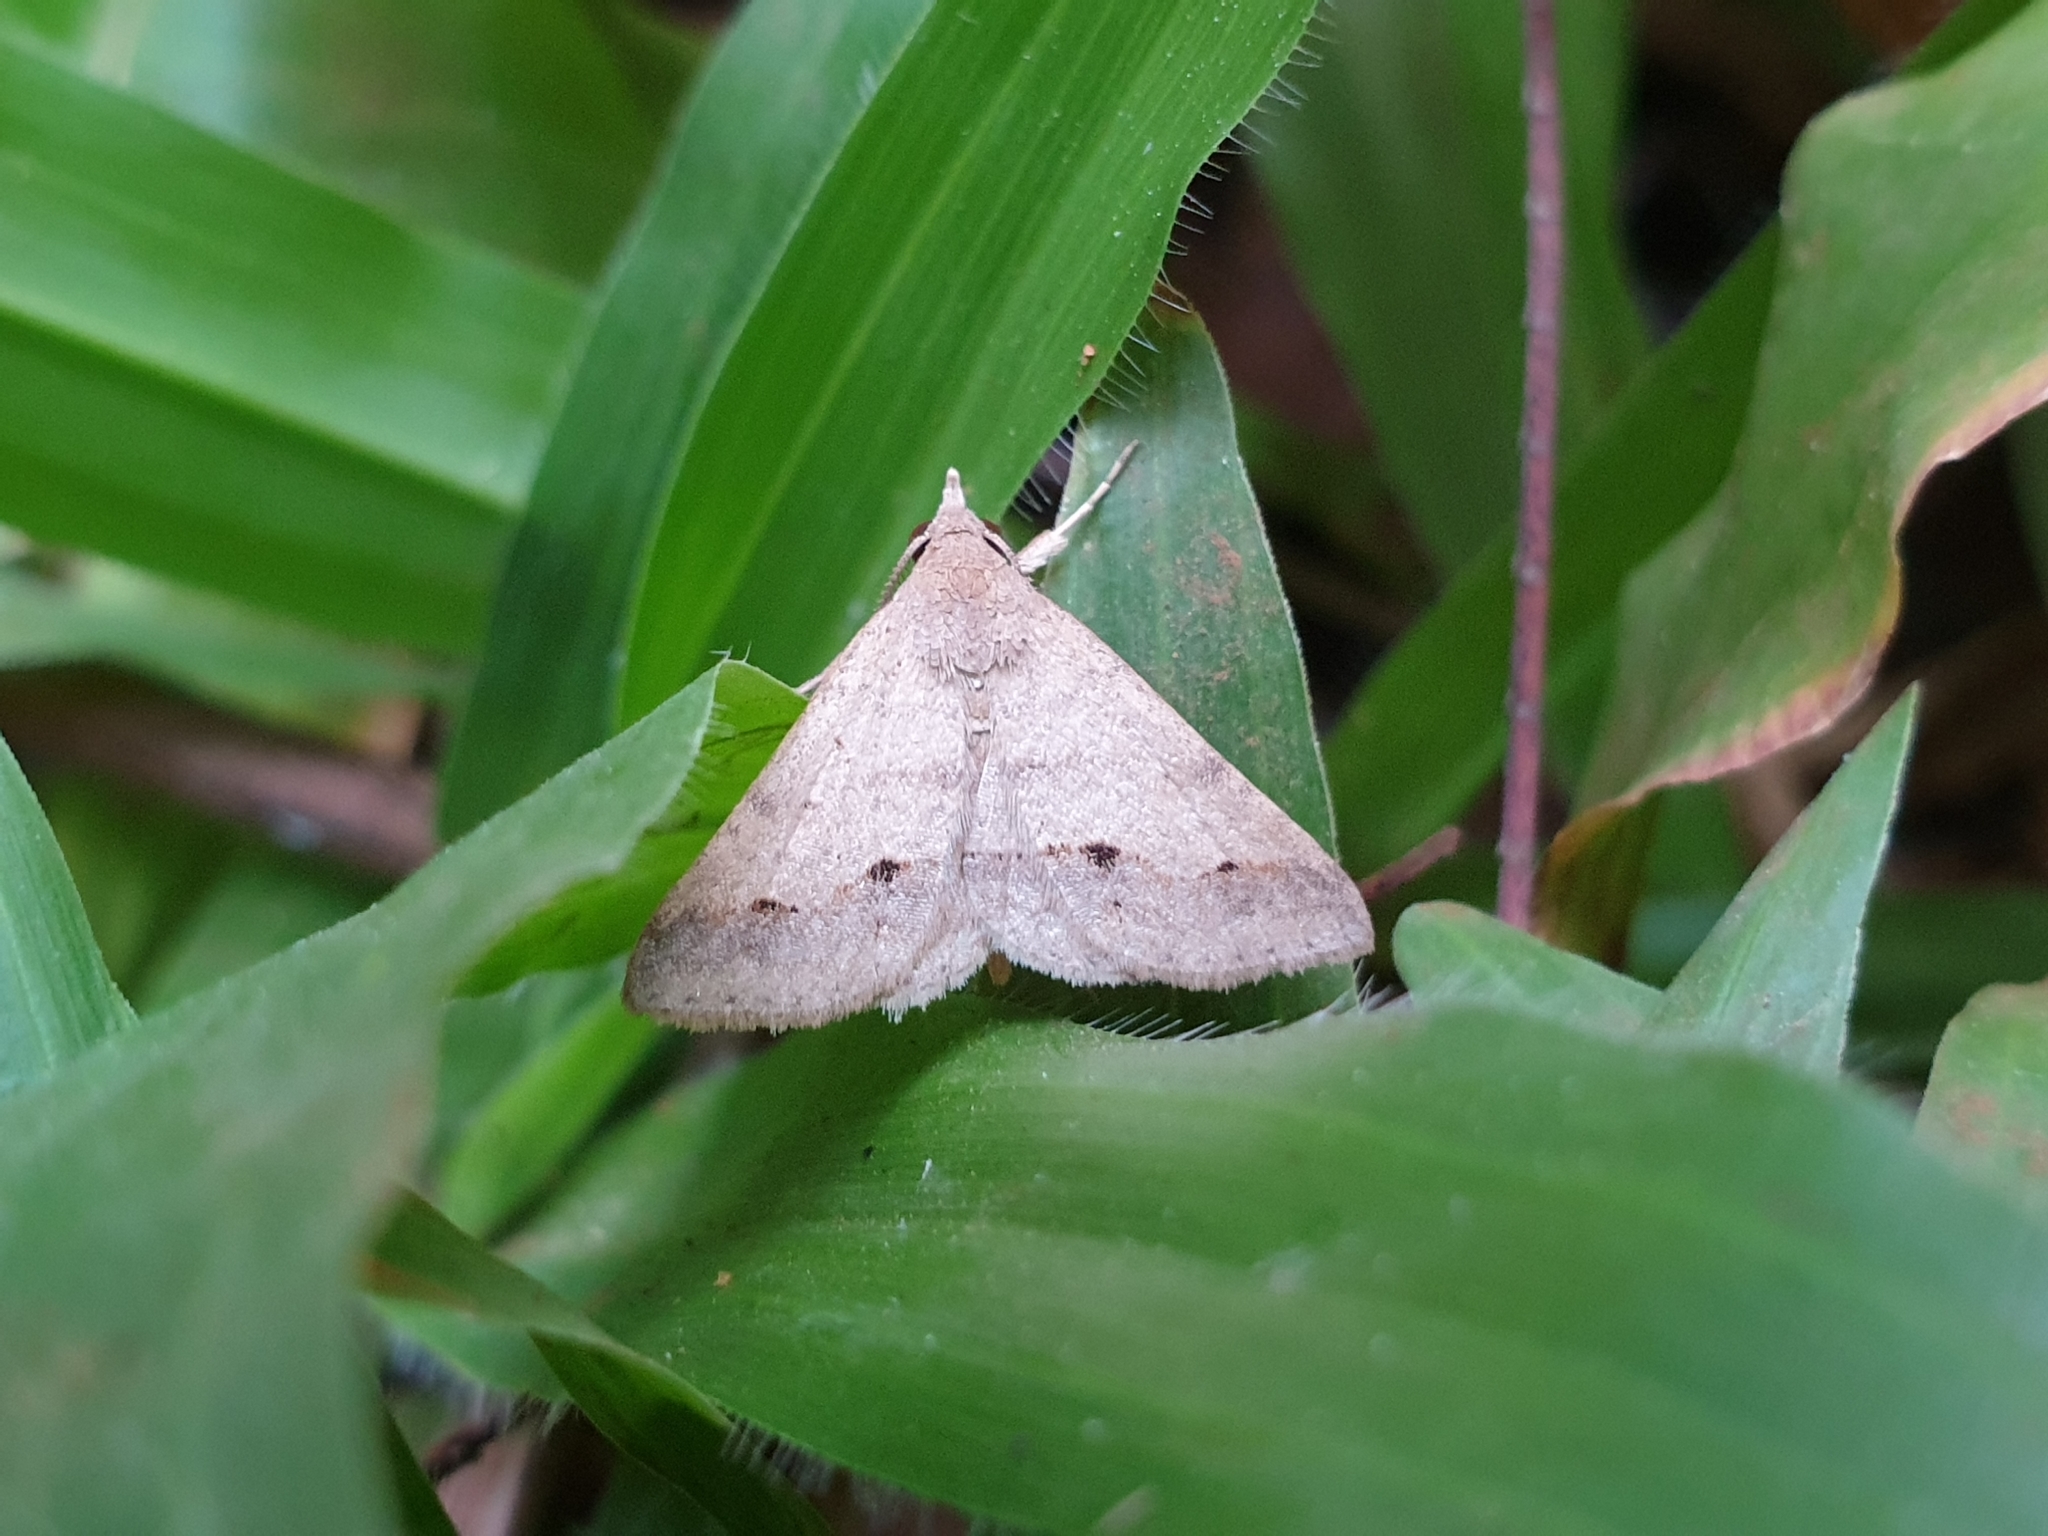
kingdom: Animalia
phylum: Arthropoda
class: Insecta
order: Lepidoptera
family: Erebidae
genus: Gesonia
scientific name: Gesonia obeditalis
